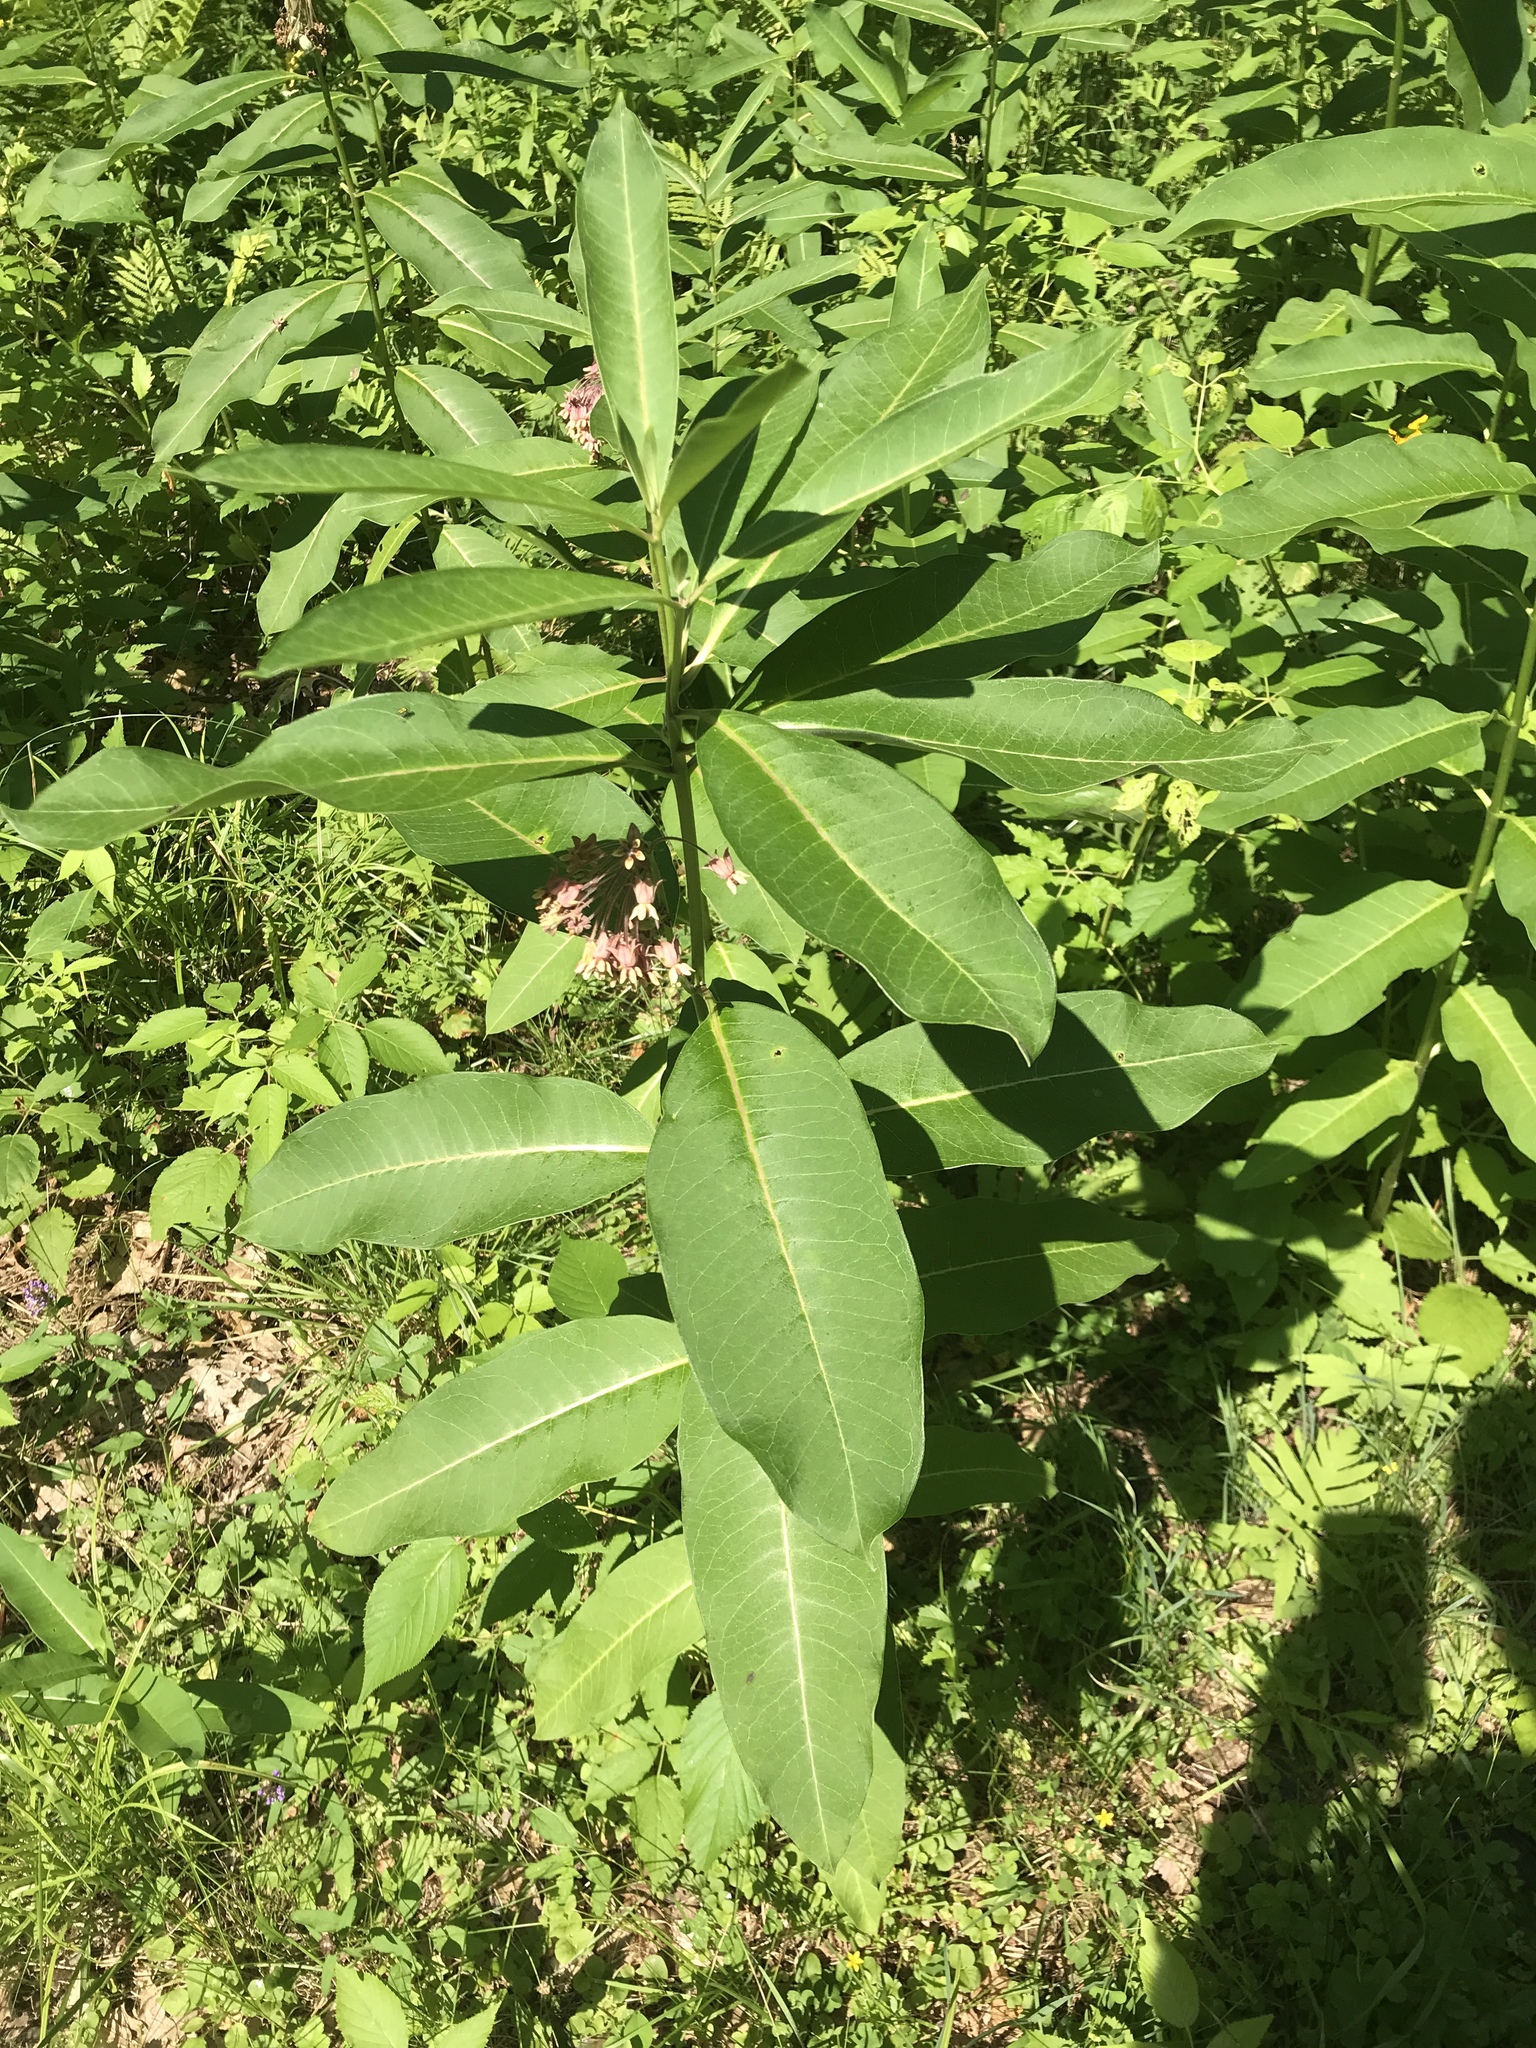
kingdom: Plantae
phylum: Tracheophyta
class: Magnoliopsida
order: Gentianales
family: Apocynaceae
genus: Asclepias
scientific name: Asclepias syriaca
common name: Common milkweed
